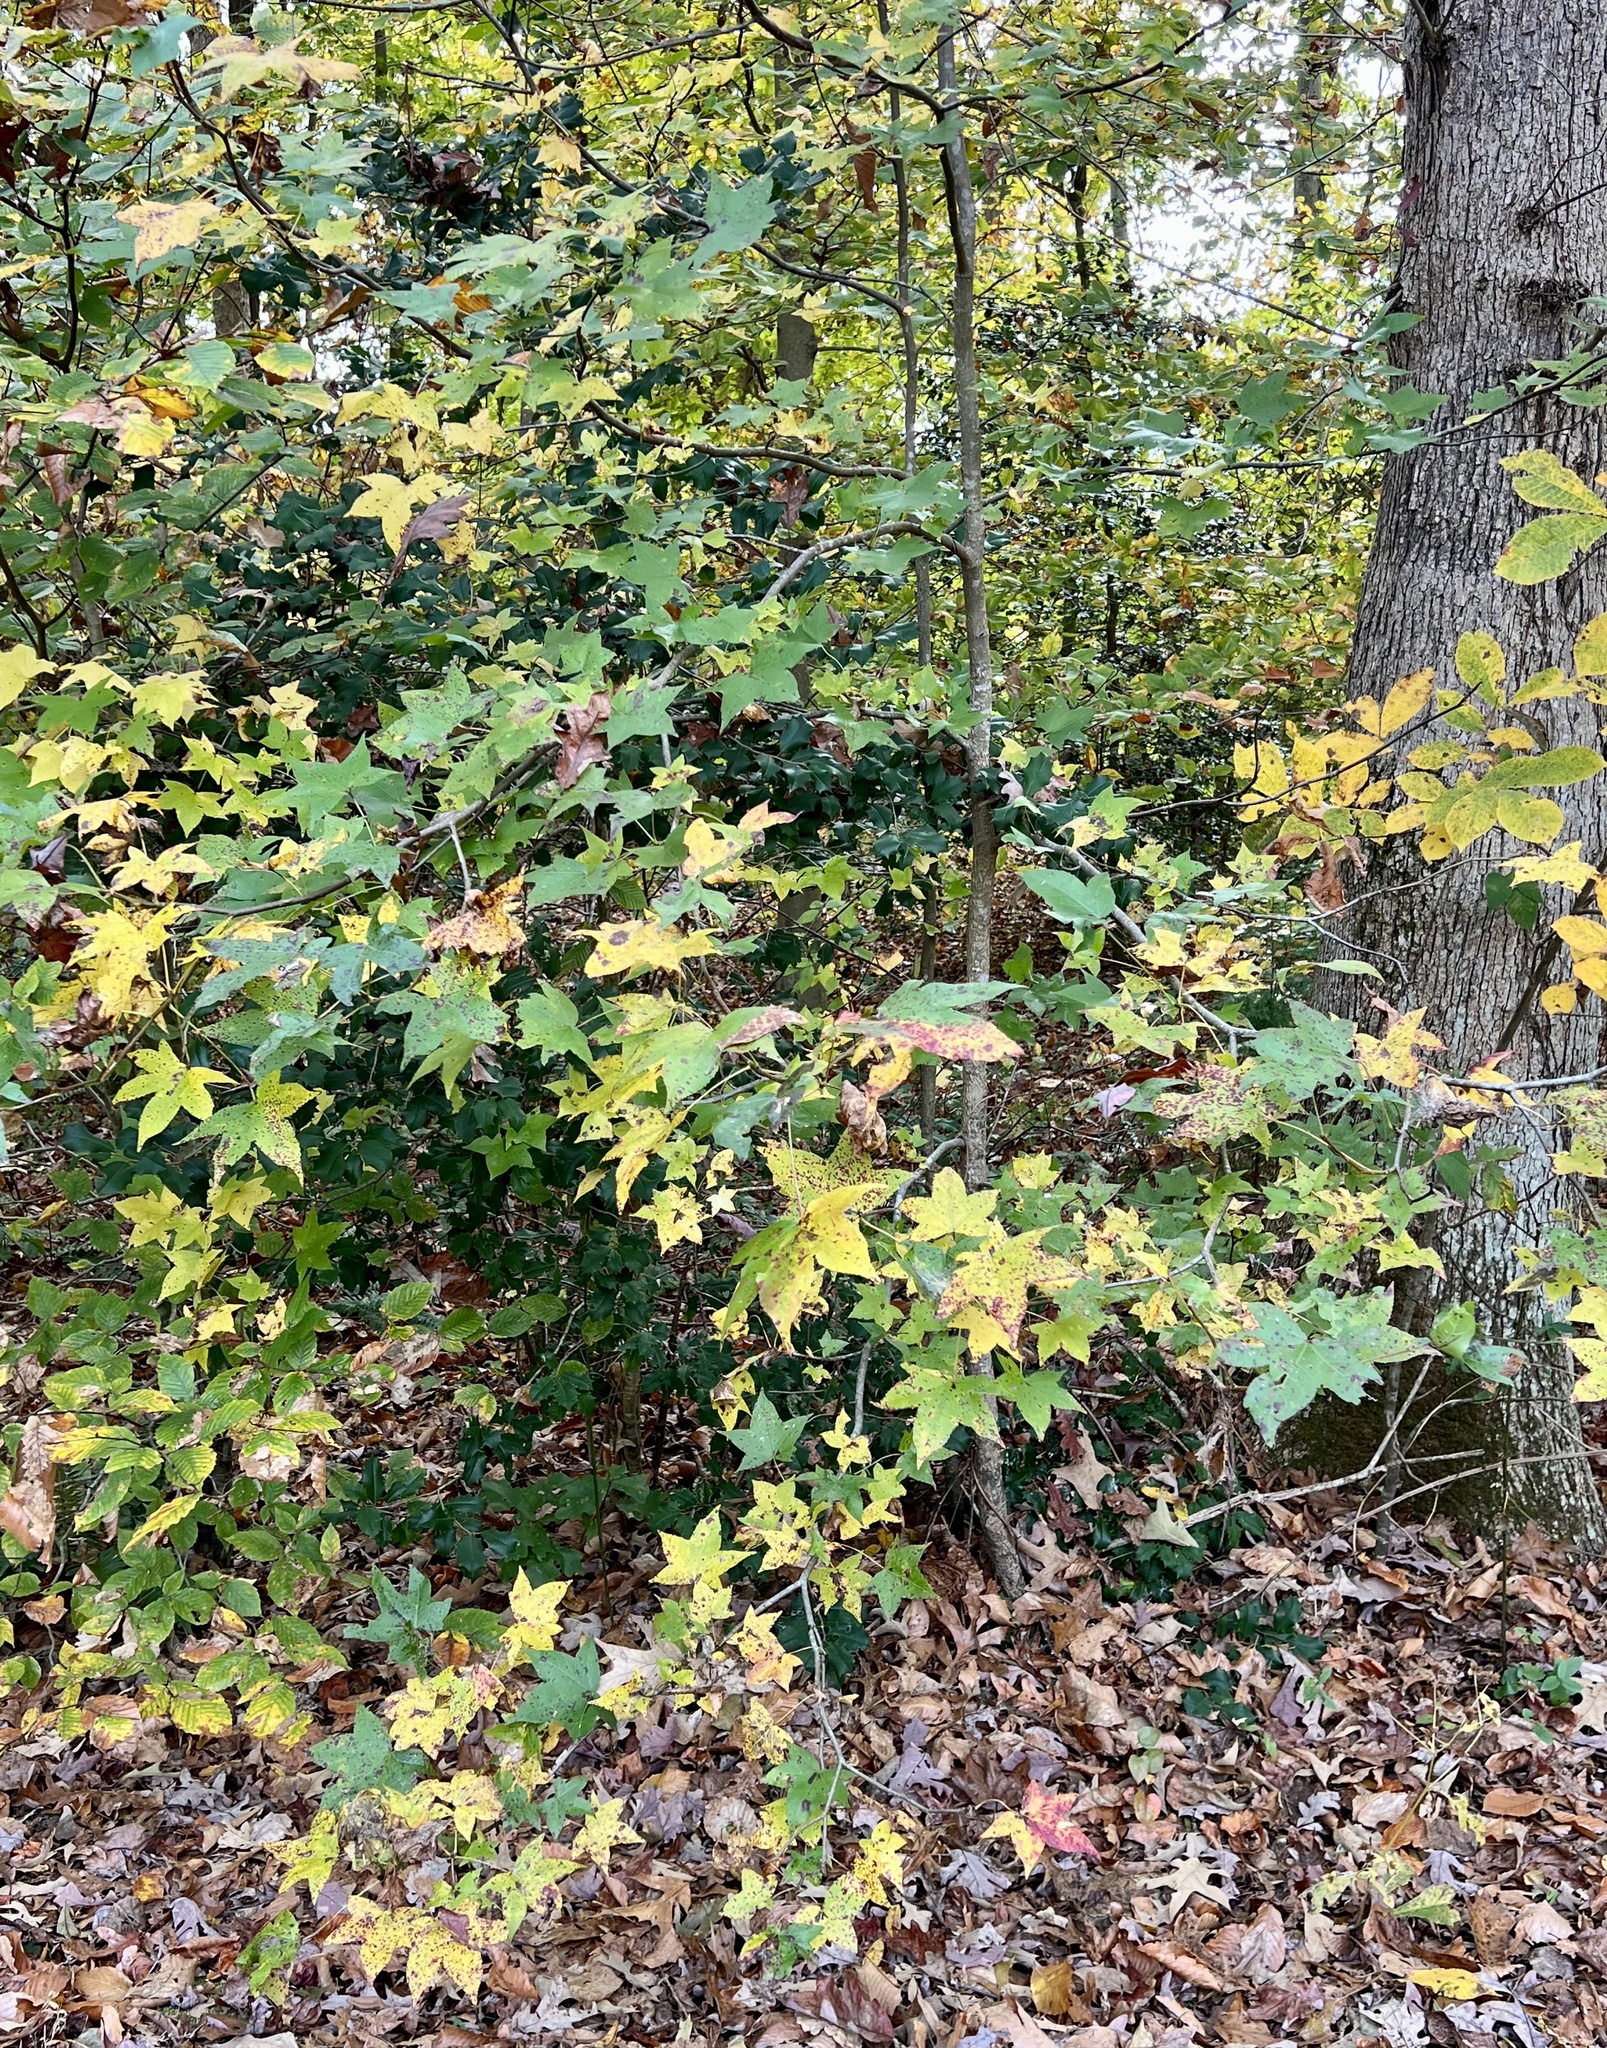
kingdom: Plantae
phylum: Tracheophyta
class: Magnoliopsida
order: Saxifragales
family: Altingiaceae
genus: Liquidambar
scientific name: Liquidambar styraciflua
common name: Sweet gum
